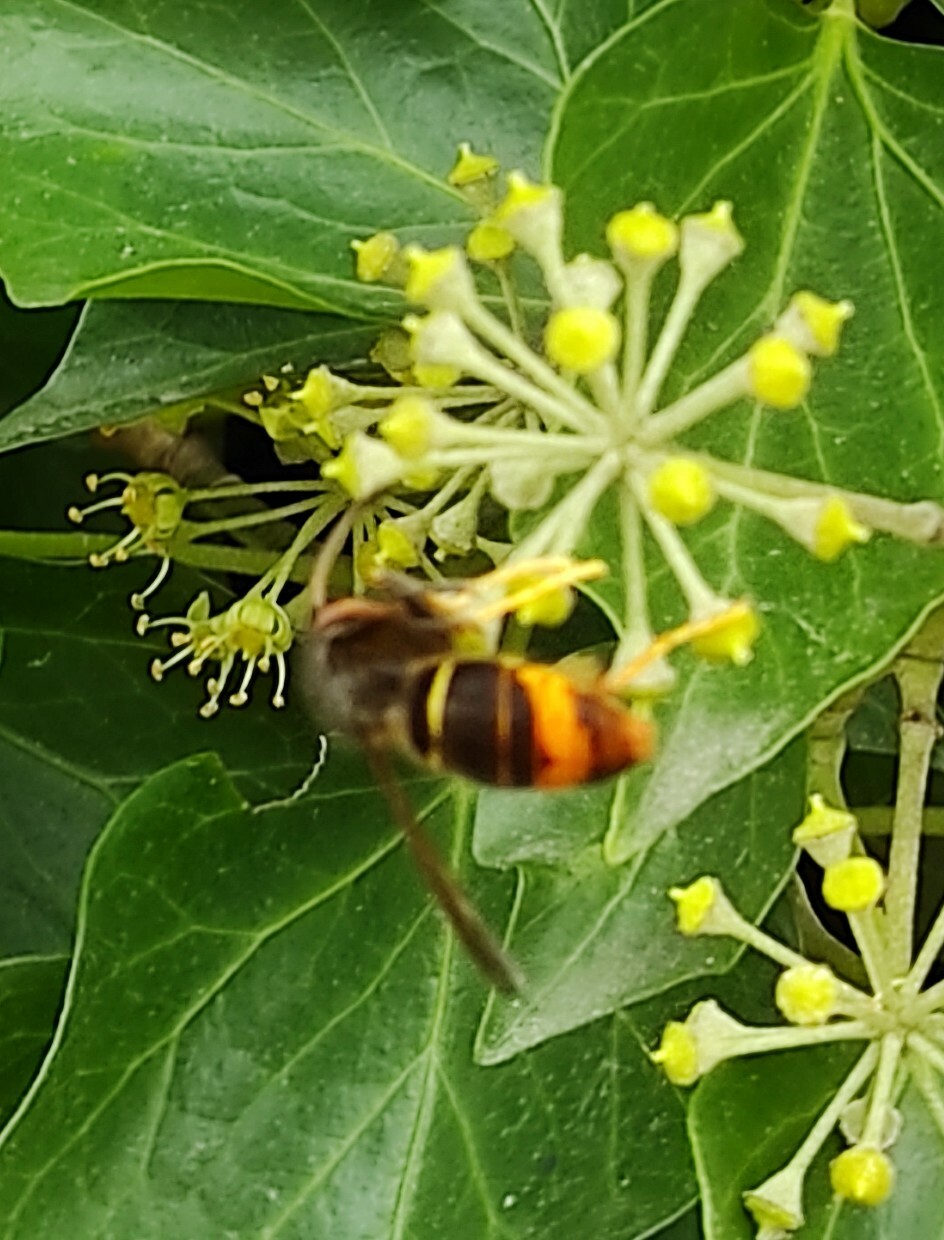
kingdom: Animalia
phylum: Arthropoda
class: Insecta
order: Hymenoptera
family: Vespidae
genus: Vespa
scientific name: Vespa velutina
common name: Asian hornet
